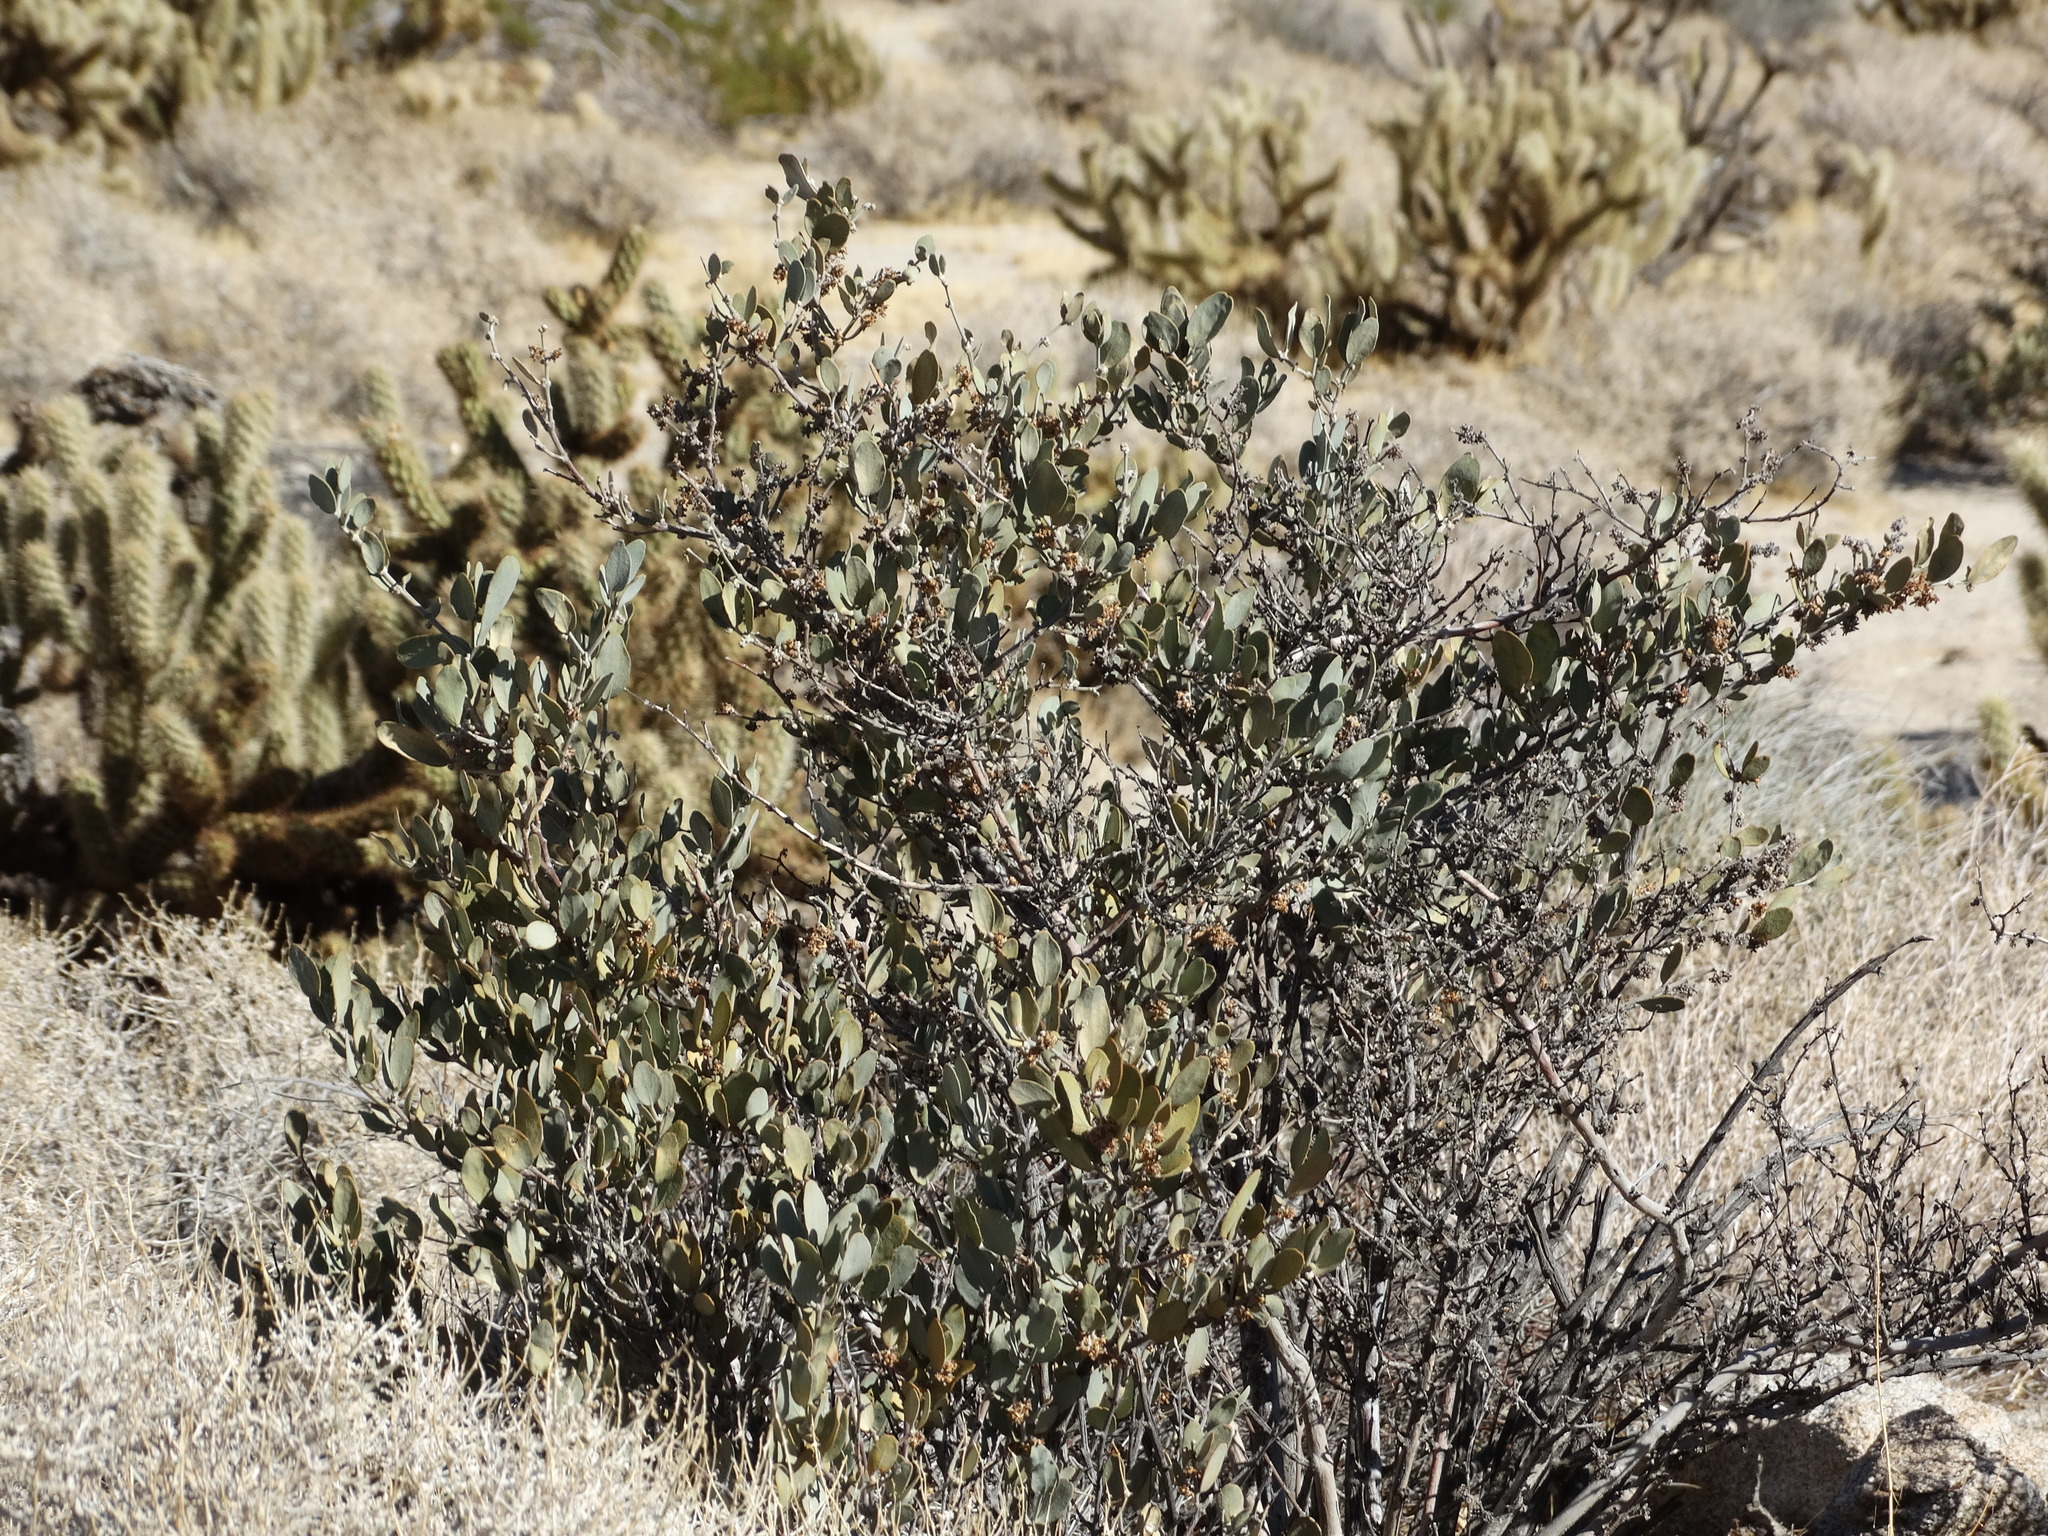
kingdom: Plantae
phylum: Tracheophyta
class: Magnoliopsida
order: Caryophyllales
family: Simmondsiaceae
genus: Simmondsia
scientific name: Simmondsia chinensis
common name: Jojoba
